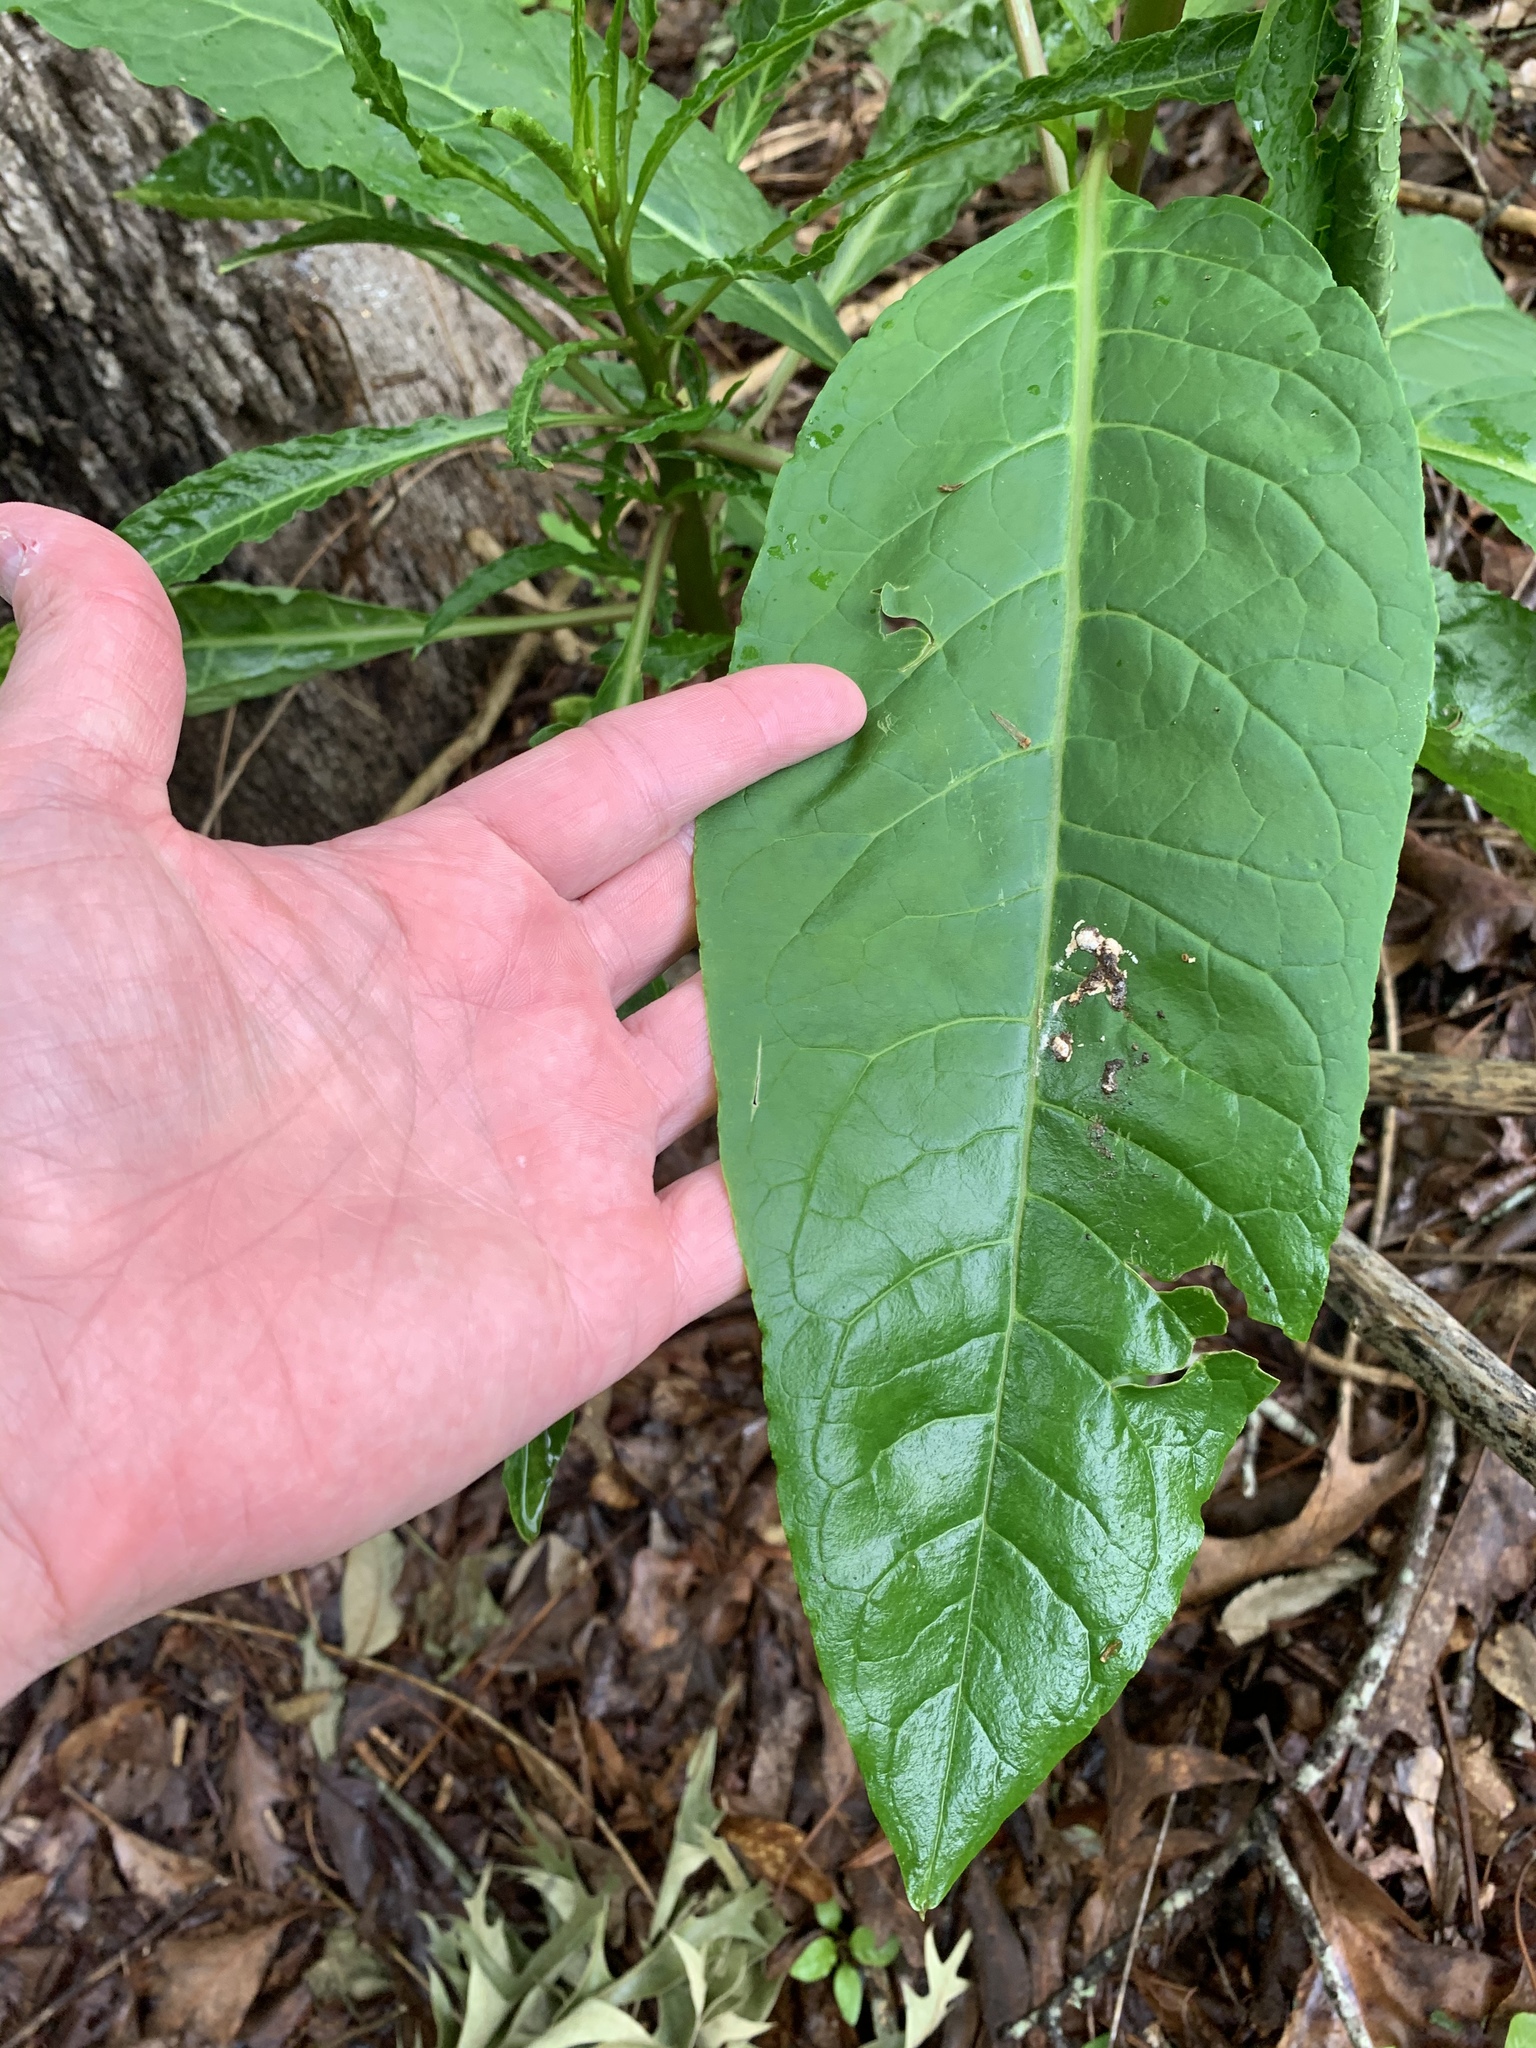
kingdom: Plantae
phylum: Tracheophyta
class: Magnoliopsida
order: Caryophyllales
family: Phytolaccaceae
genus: Phytolacca
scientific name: Phytolacca americana
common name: American pokeweed
